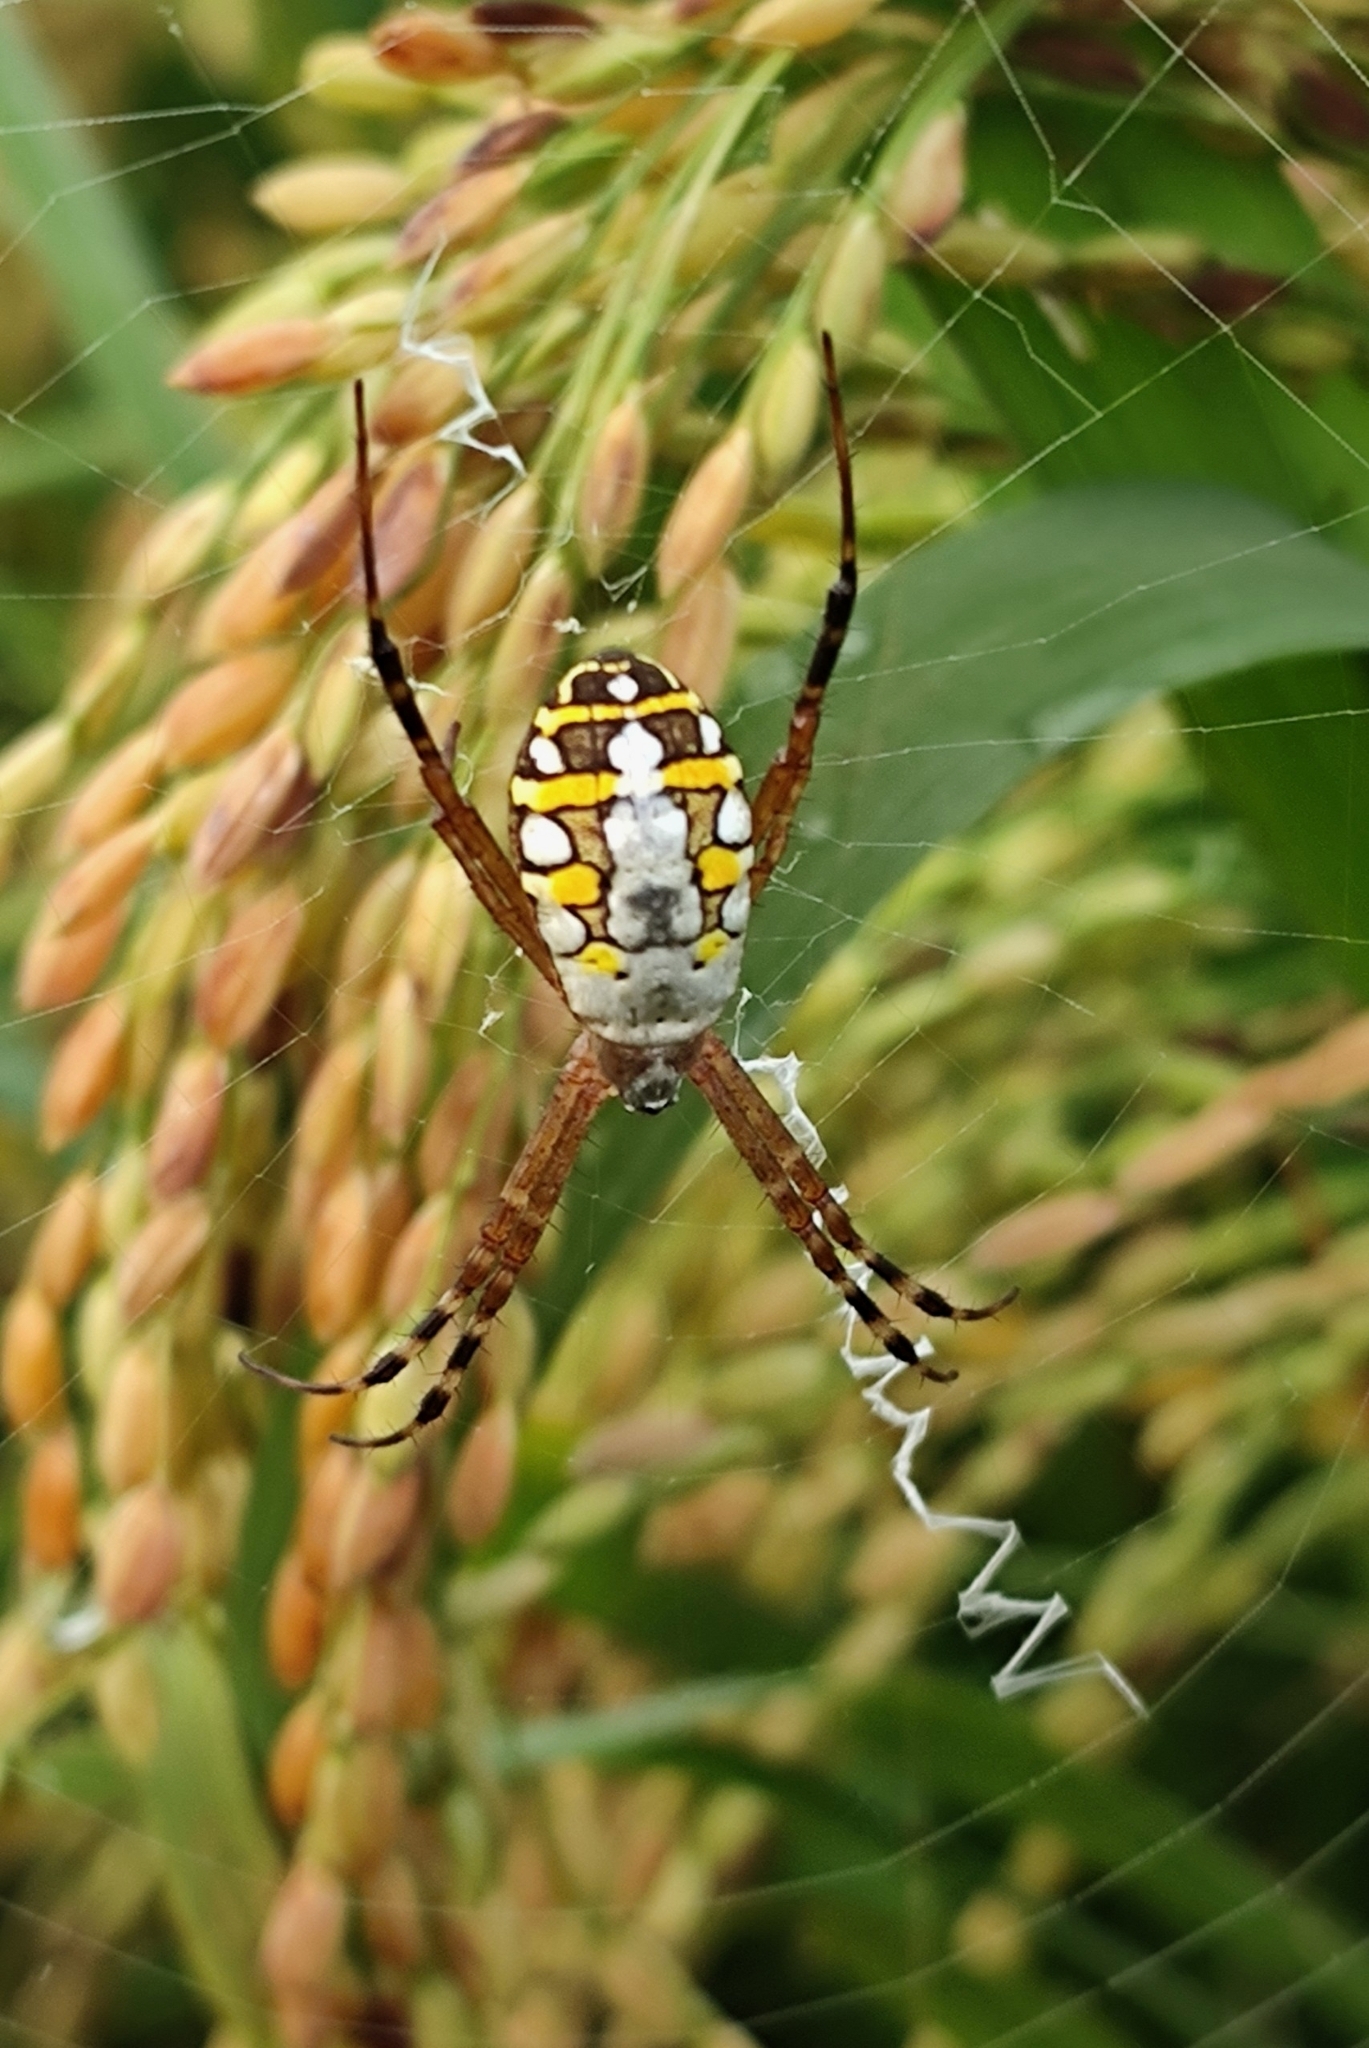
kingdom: Animalia
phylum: Arthropoda
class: Arachnida
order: Araneae
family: Araneidae
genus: Argiope
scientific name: Argiope catenulata
